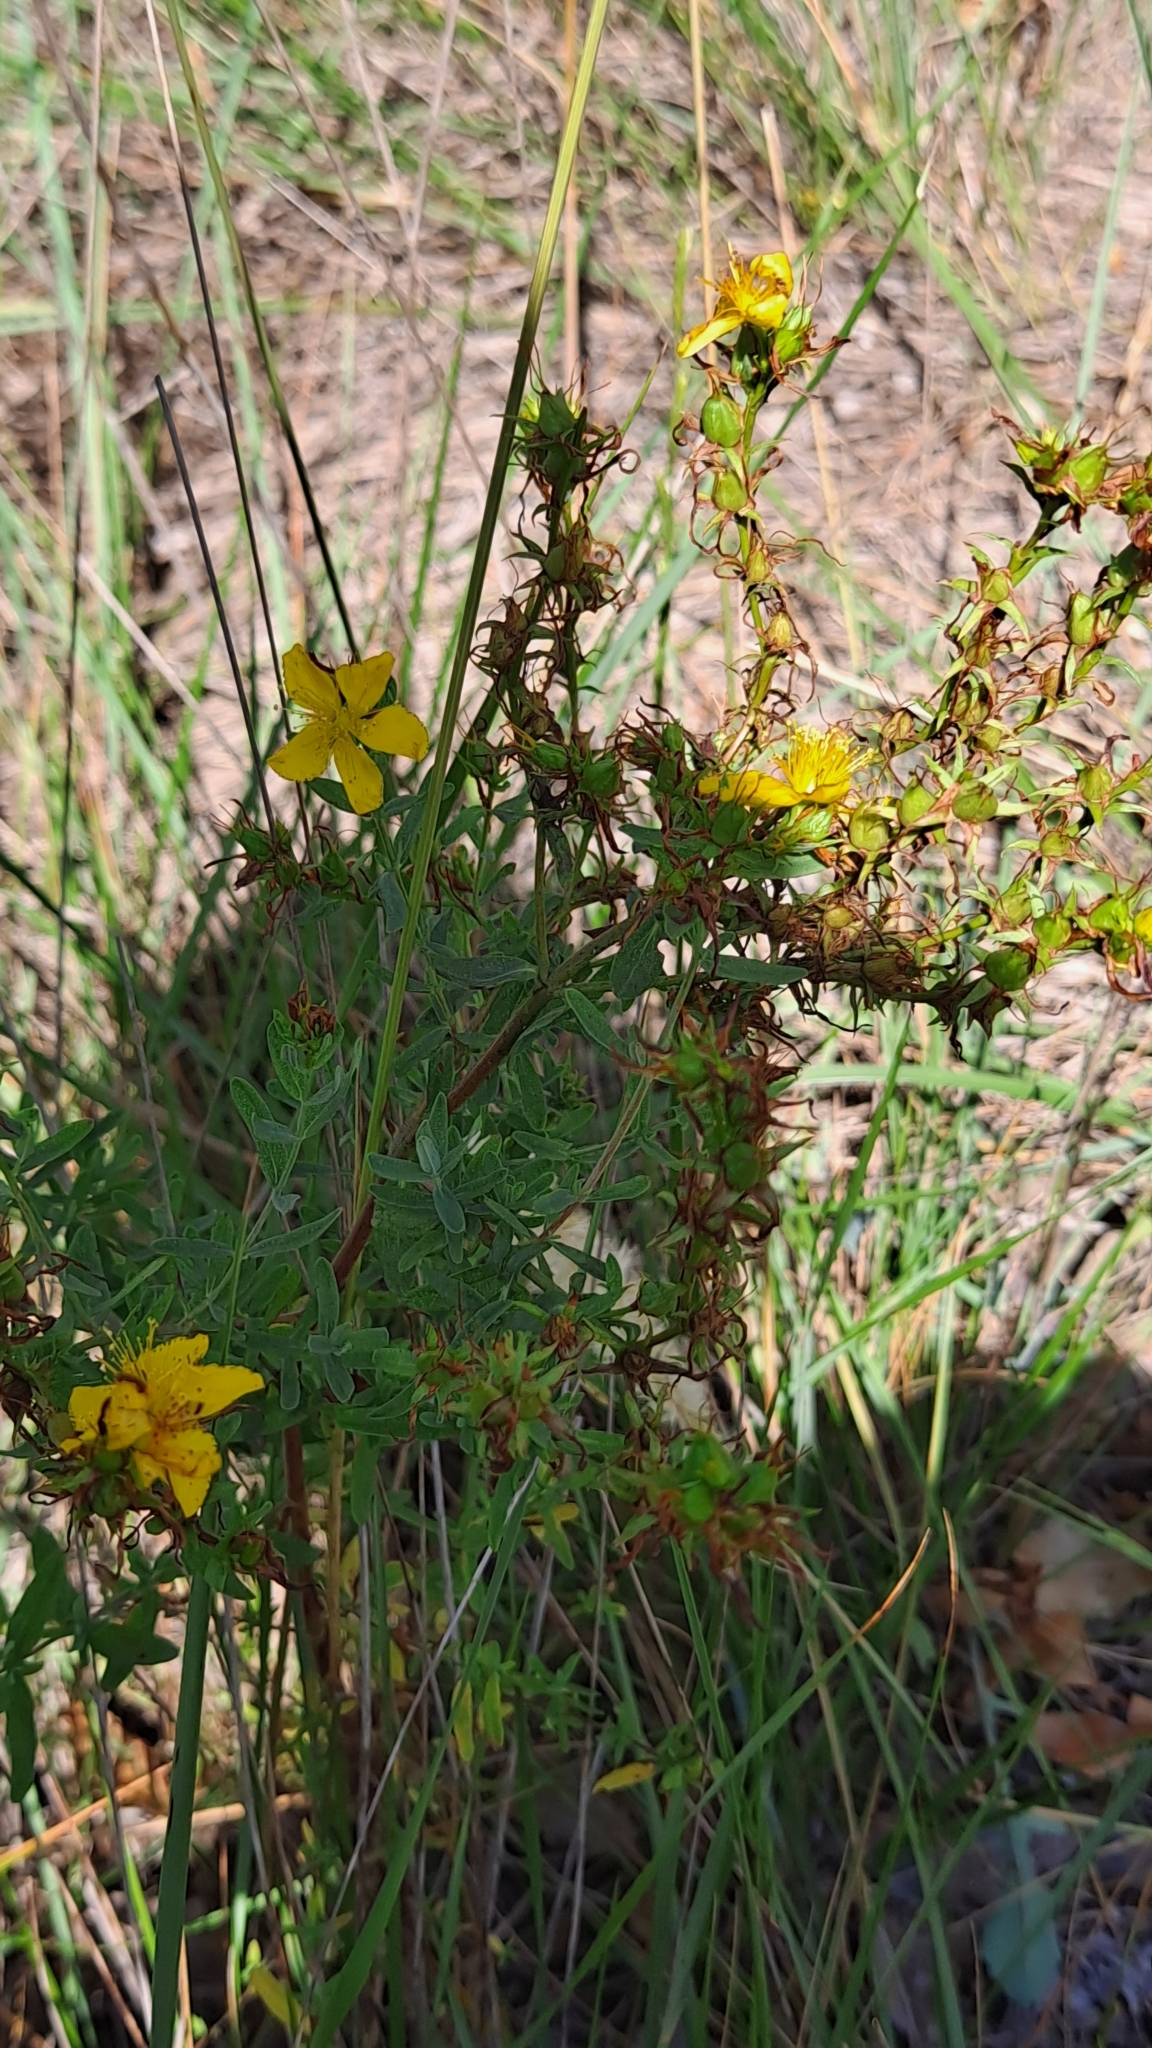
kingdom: Plantae
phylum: Tracheophyta
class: Magnoliopsida
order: Malpighiales
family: Hypericaceae
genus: Hypericum
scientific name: Hypericum perforatum
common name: Common st. johnswort
